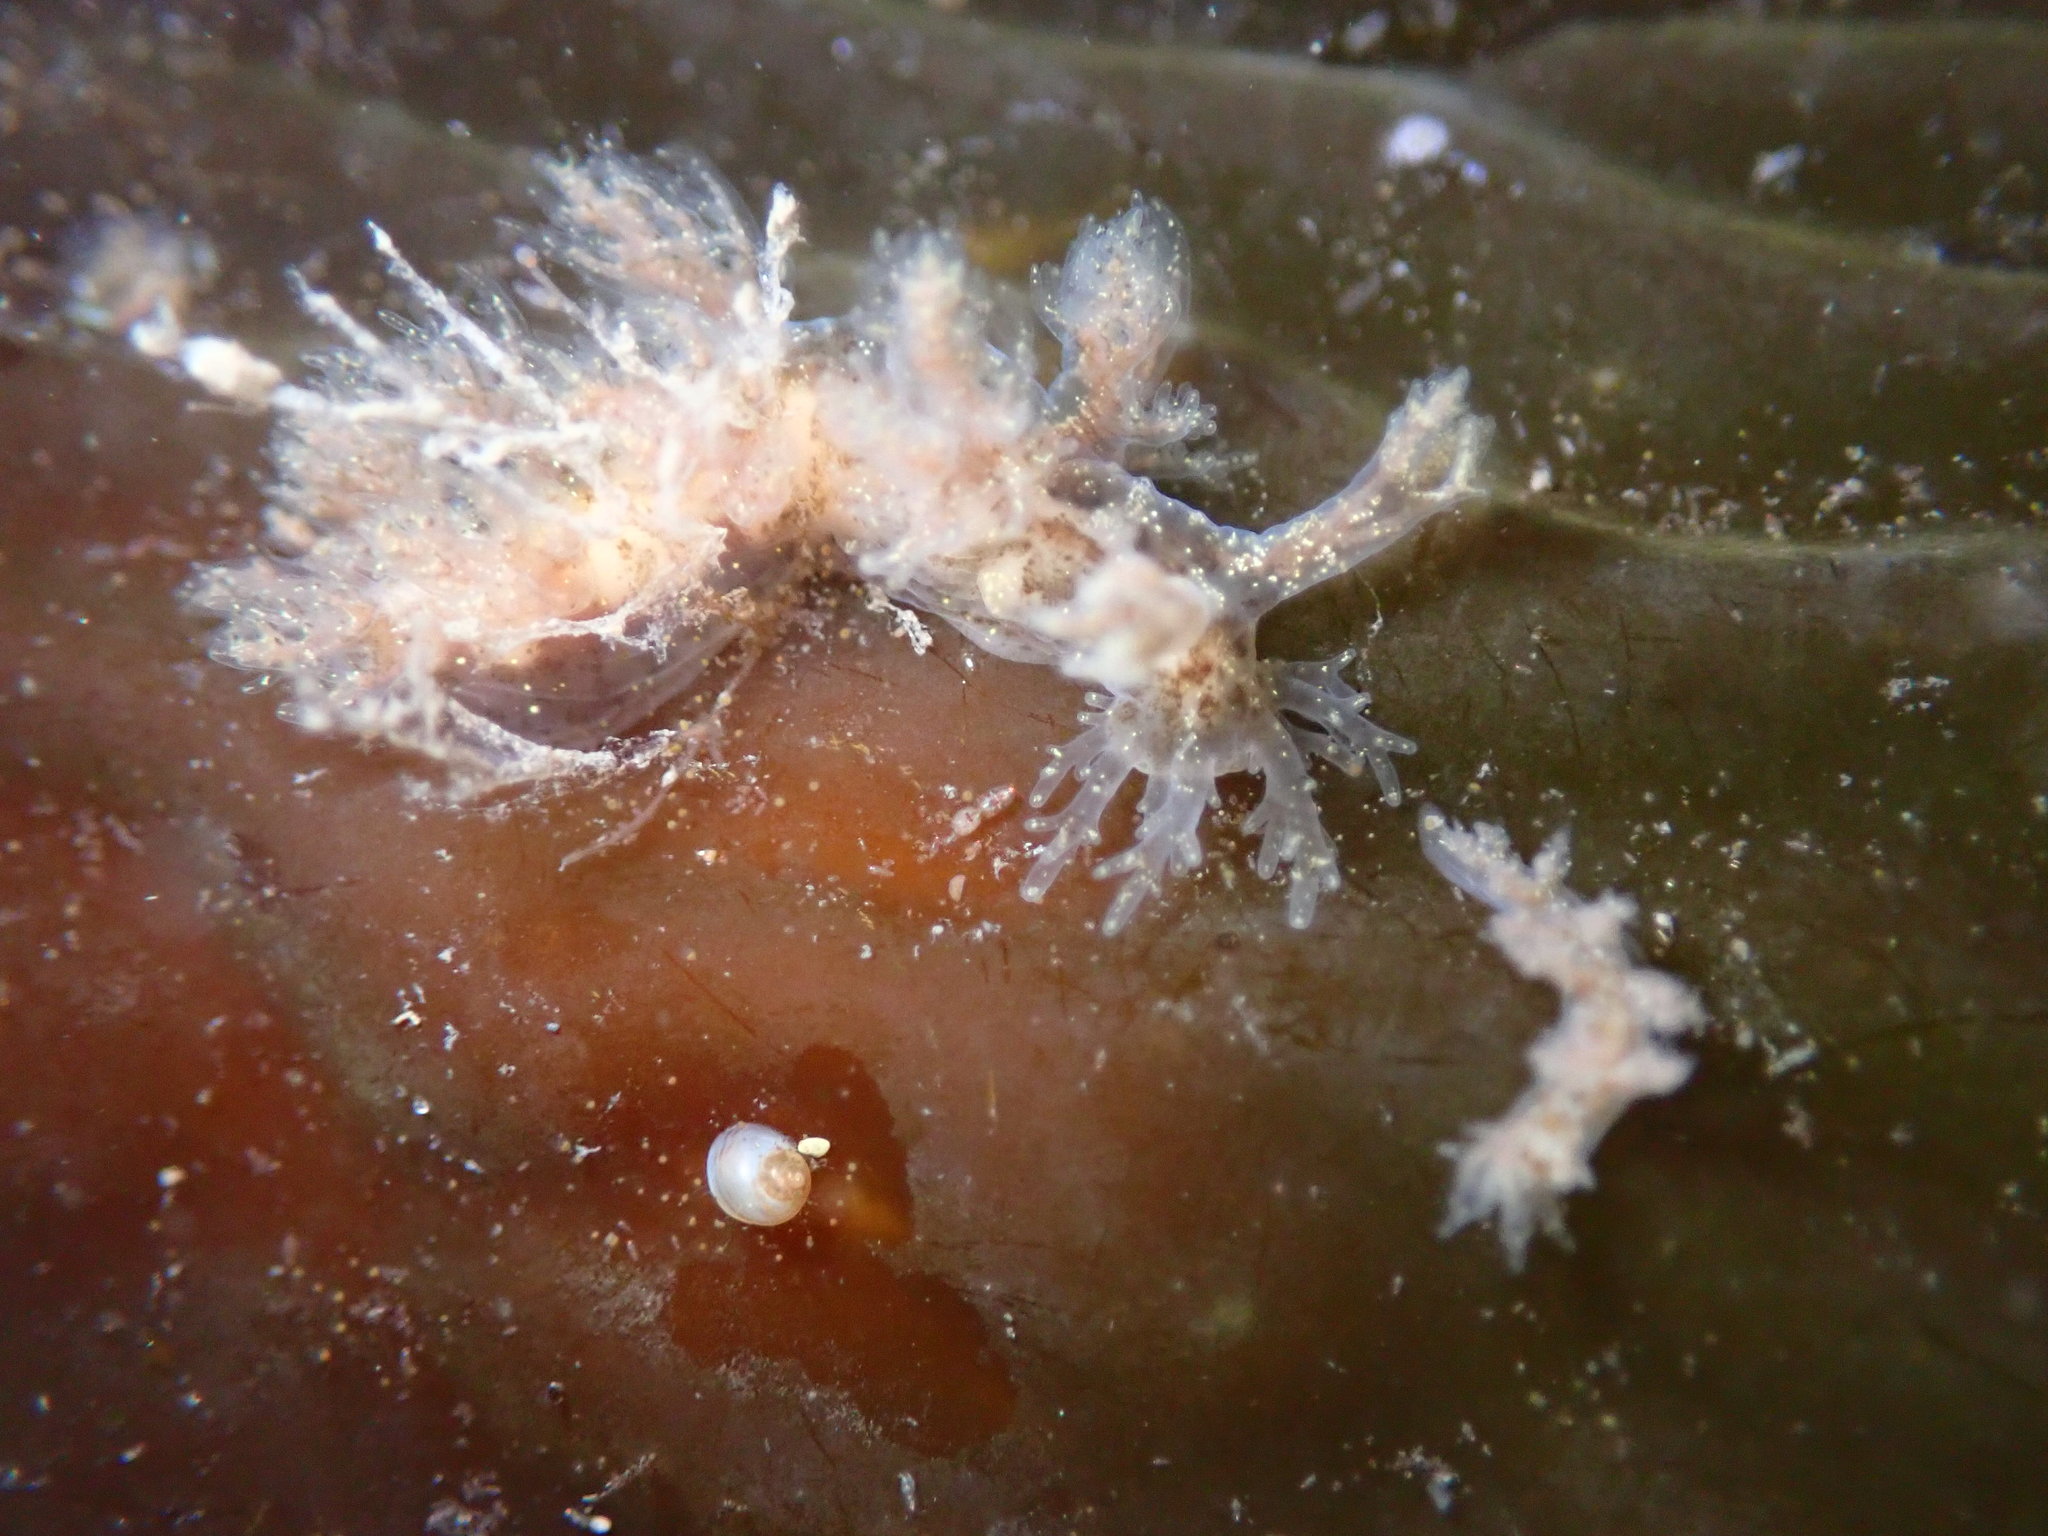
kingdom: Animalia
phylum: Mollusca
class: Gastropoda
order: Nudibranchia
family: Dendronotidae
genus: Dendronotus
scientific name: Dendronotus venustus
